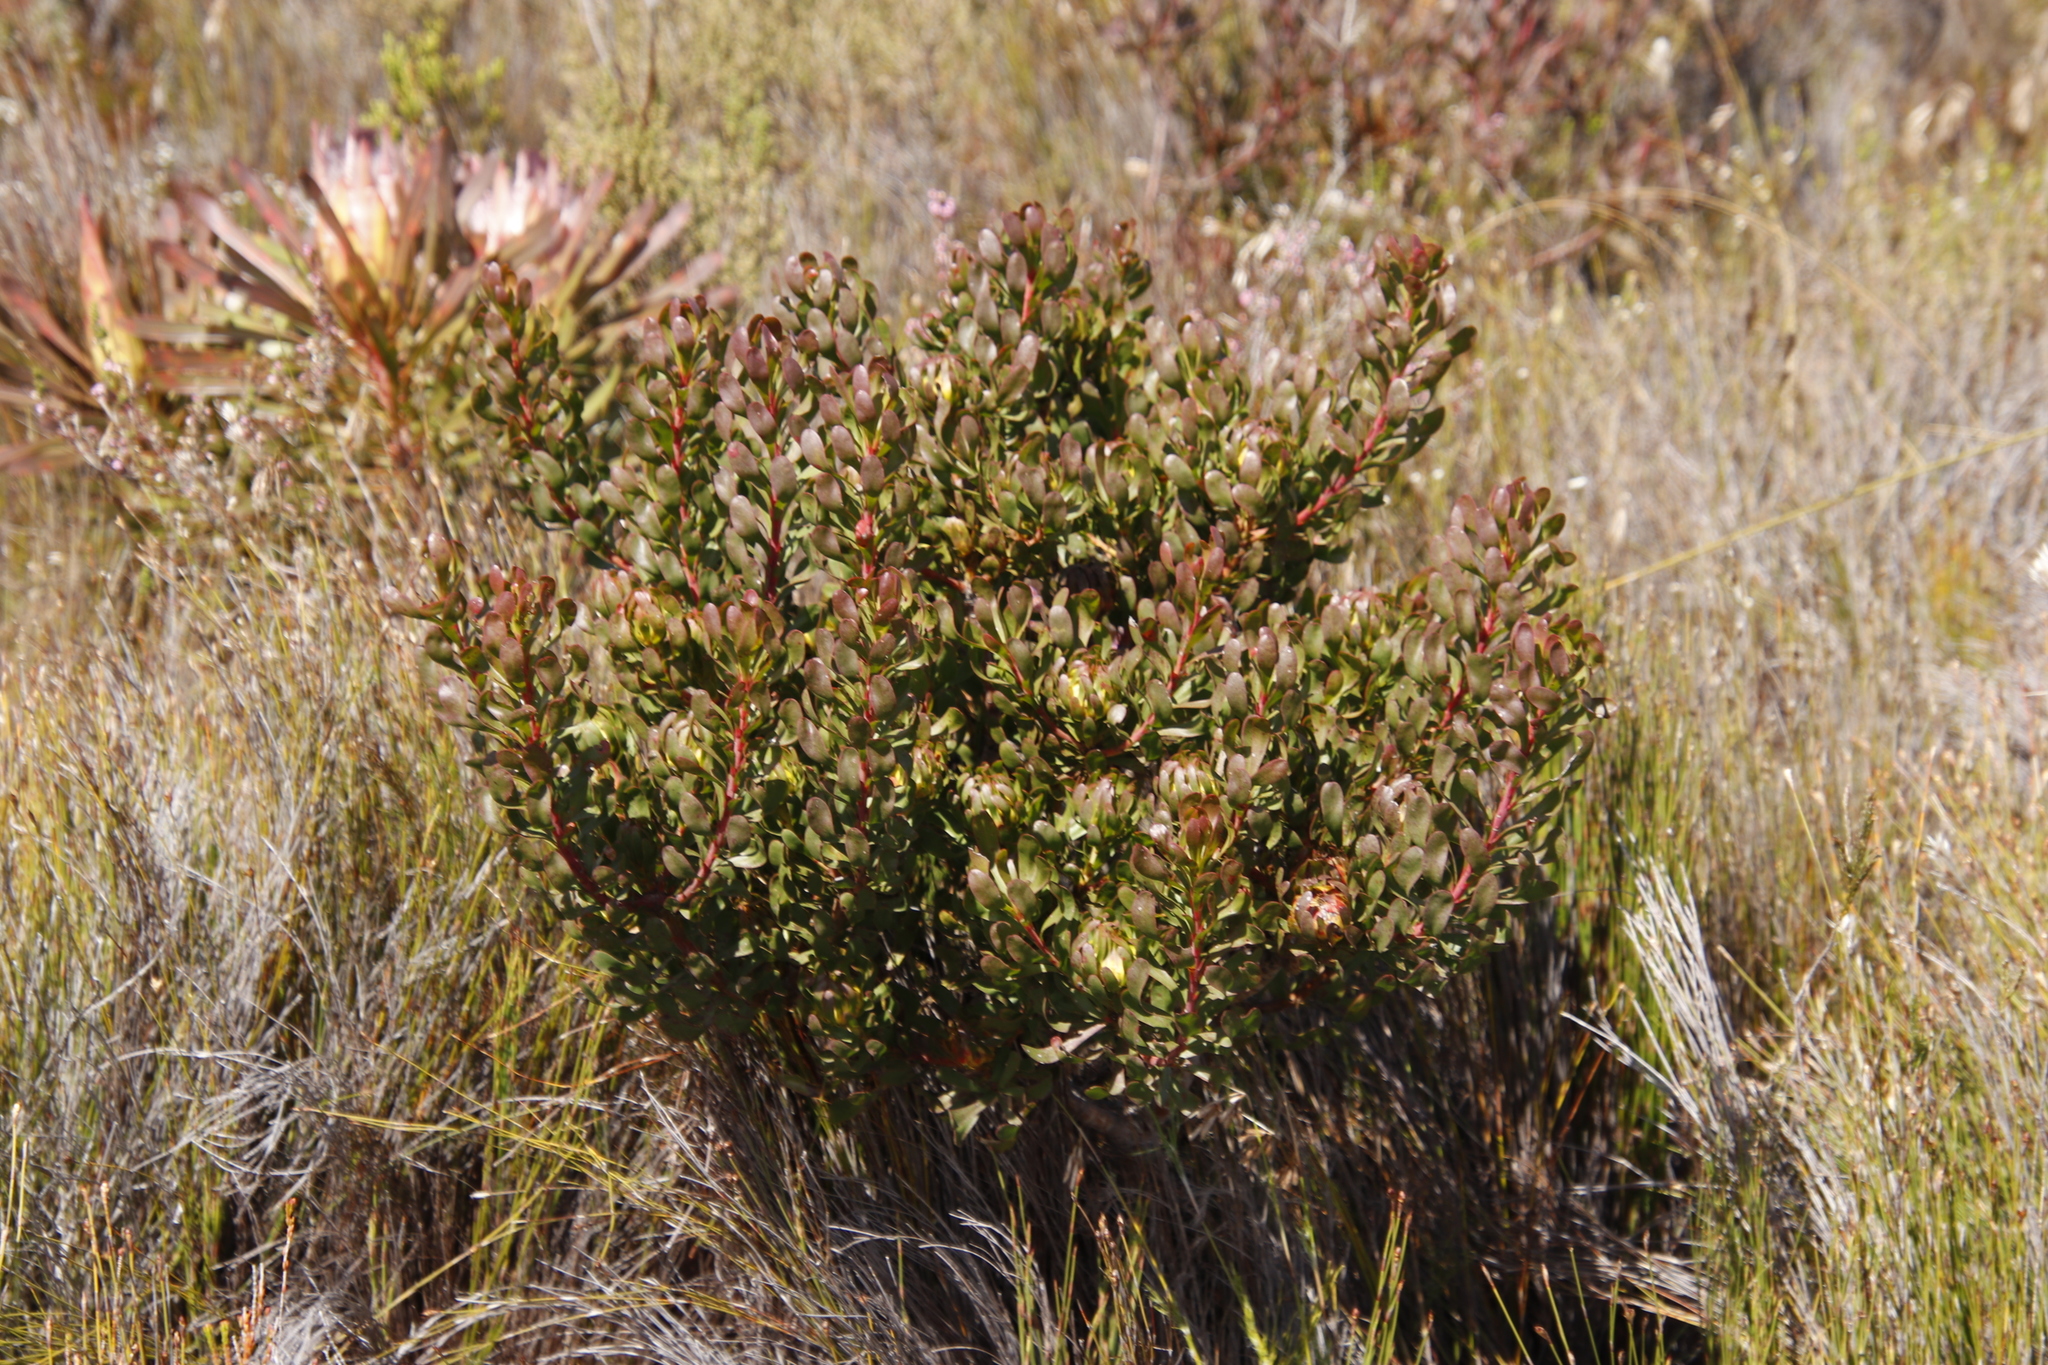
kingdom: Plantae
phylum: Tracheophyta
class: Magnoliopsida
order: Proteales
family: Proteaceae
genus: Aulax
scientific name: Aulax umbellata
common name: Broad-leaf featherbush
